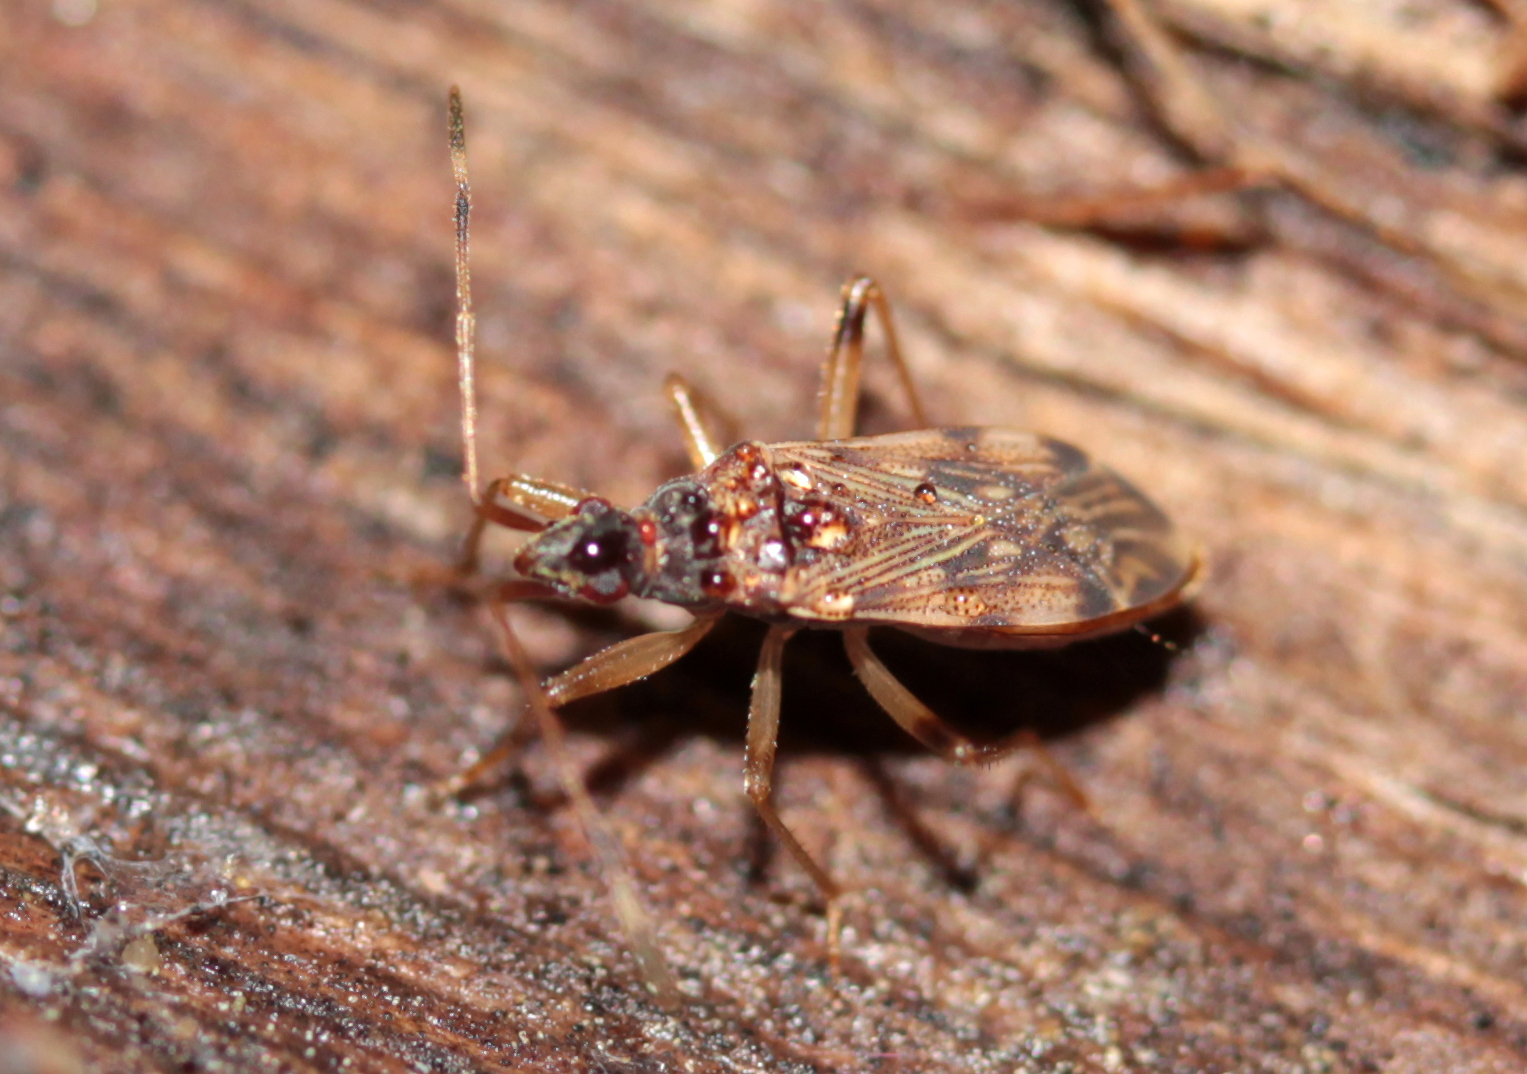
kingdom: Animalia
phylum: Arthropoda
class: Insecta
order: Hemiptera
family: Rhyparochromidae
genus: Ozophora
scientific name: Ozophora occidentalis
